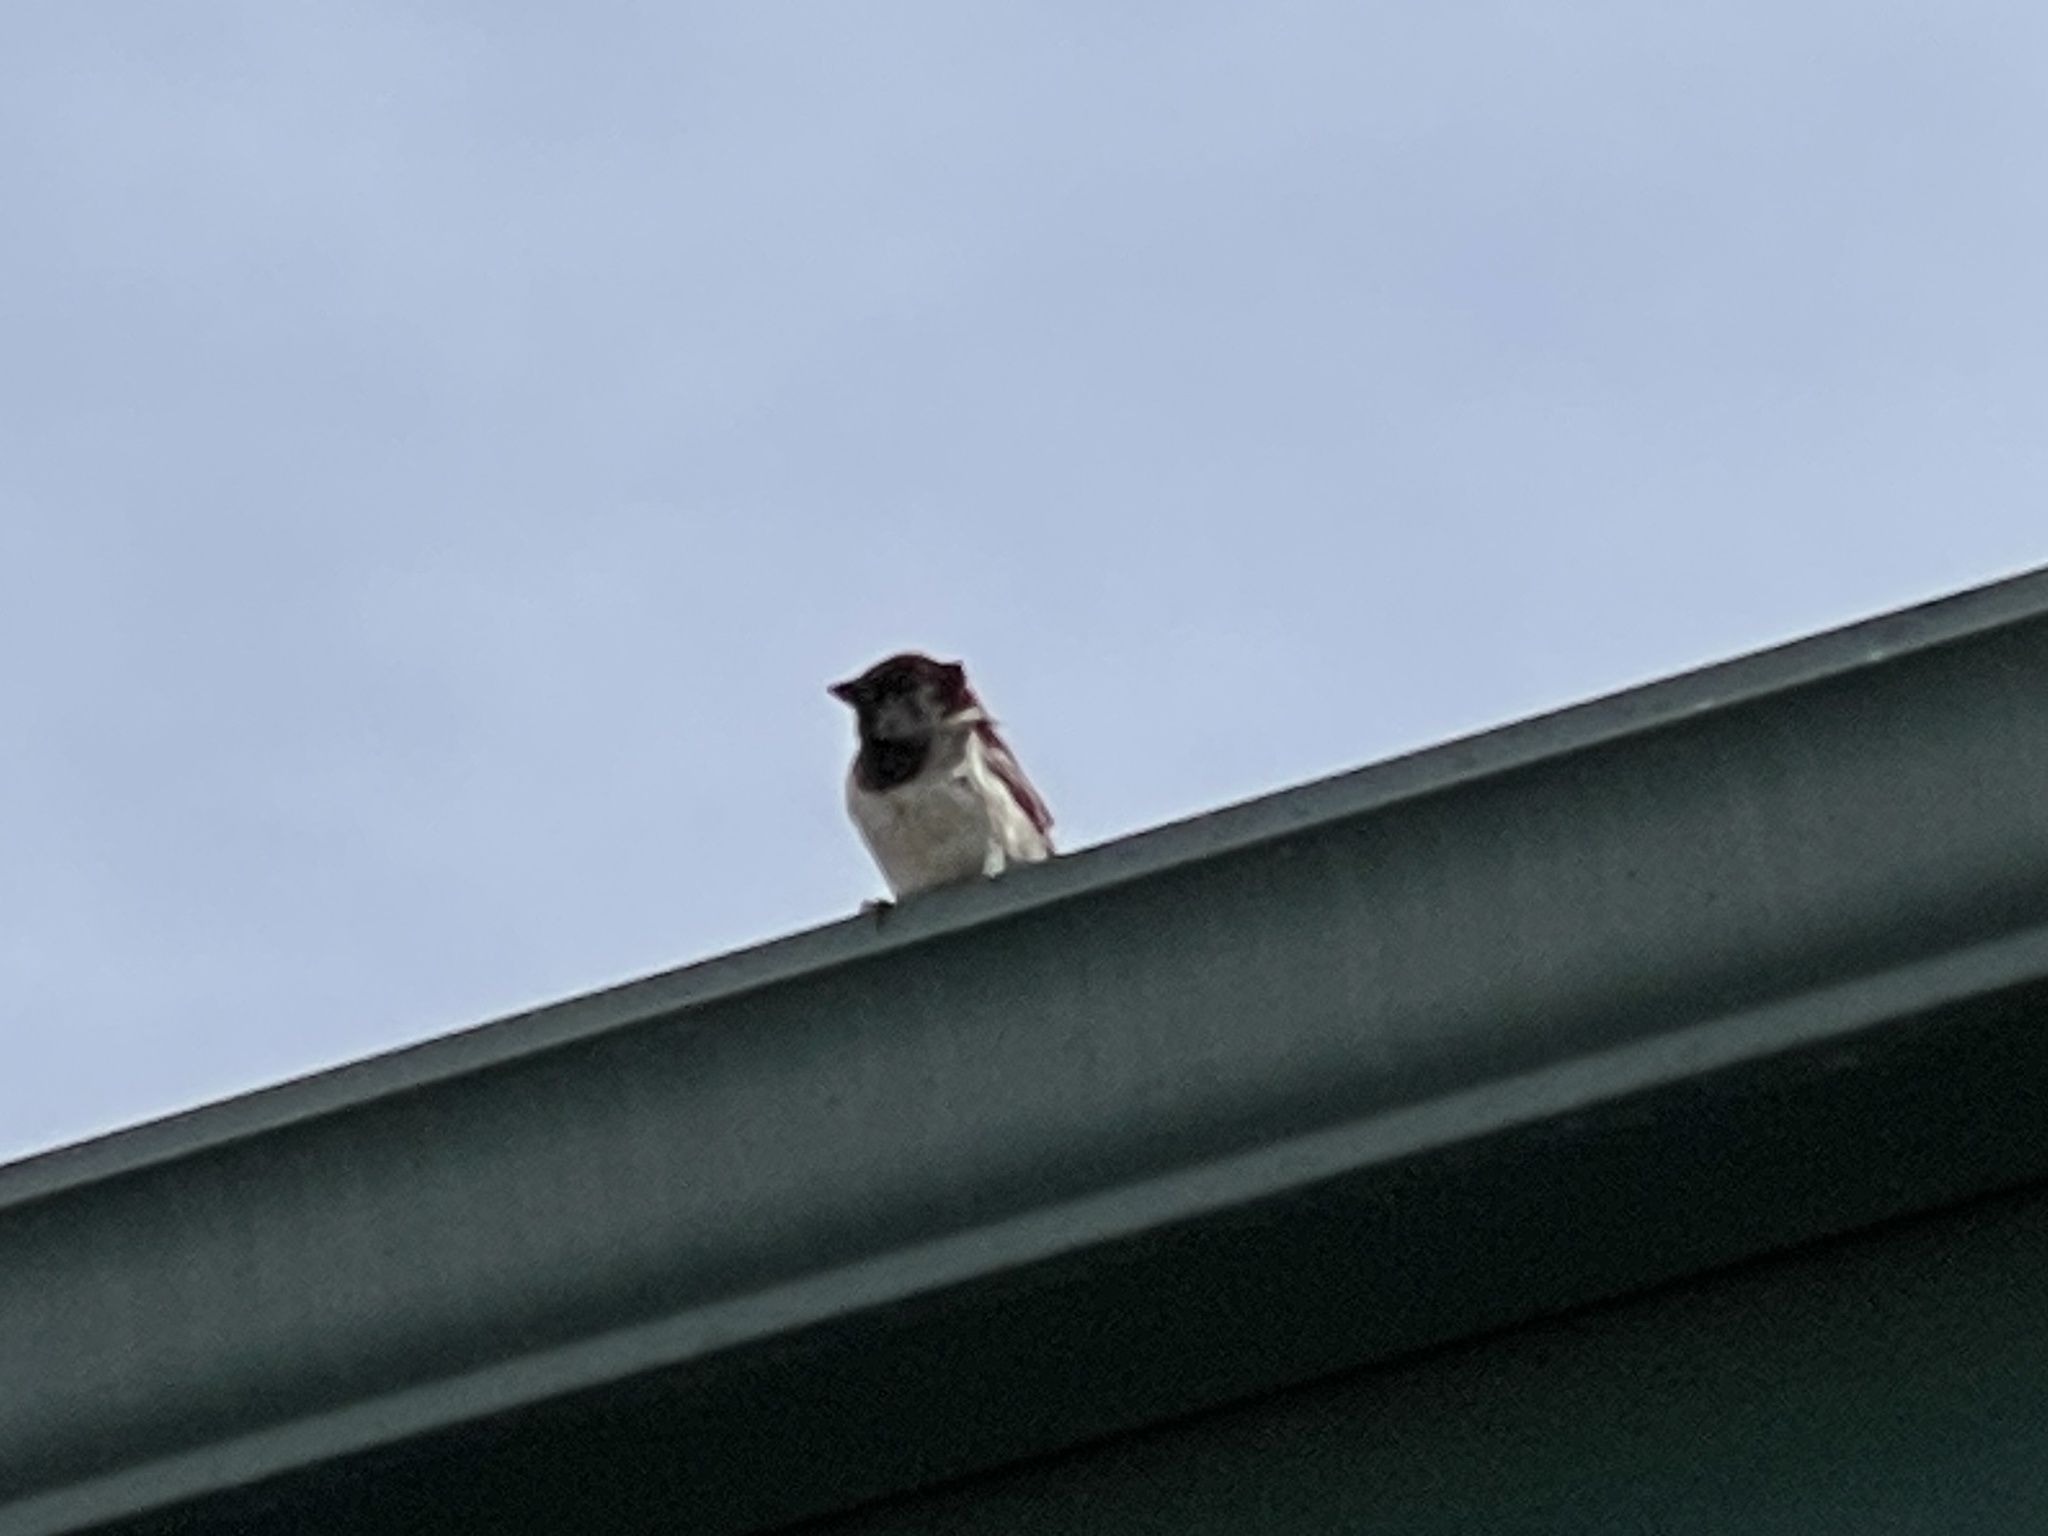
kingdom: Animalia
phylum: Chordata
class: Aves
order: Passeriformes
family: Passeridae
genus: Passer
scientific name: Passer domesticus
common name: House sparrow
